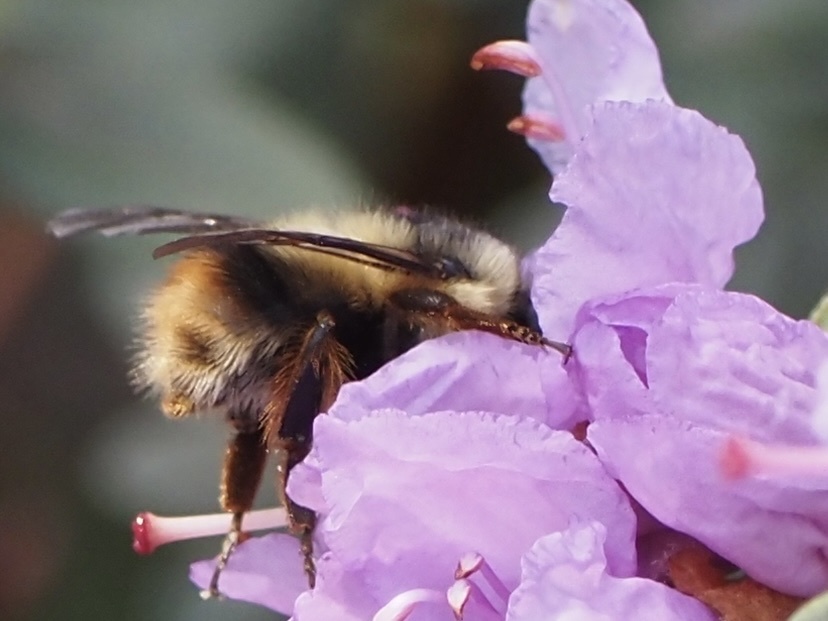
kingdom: Animalia
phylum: Arthropoda
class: Insecta
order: Hymenoptera
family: Apidae
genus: Bombus
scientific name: Bombus mixtus
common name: Fuzzy-horned bumble bee
